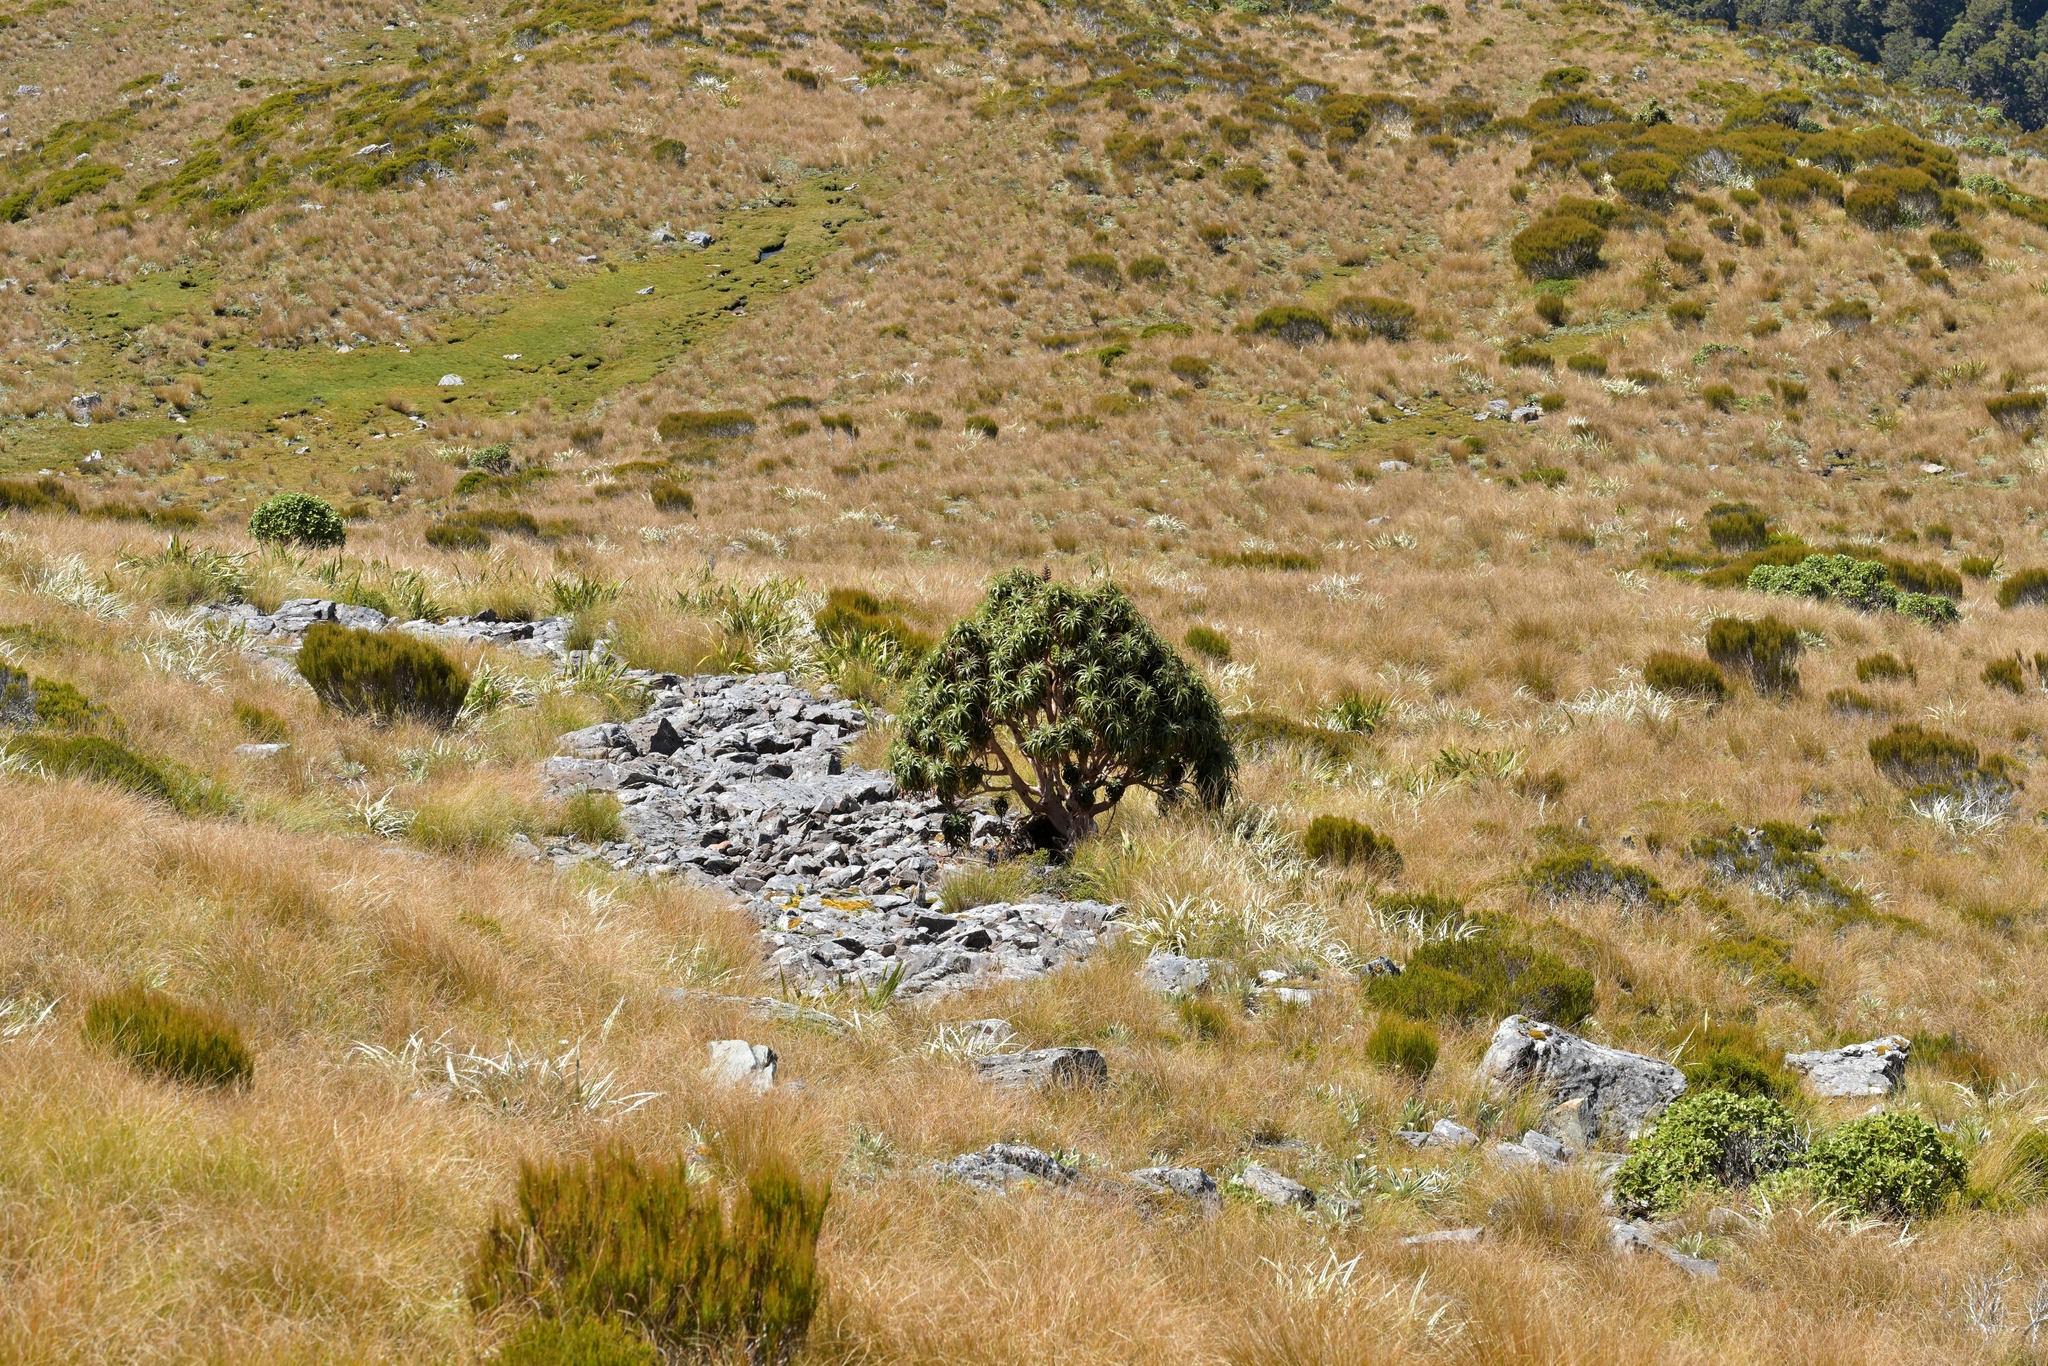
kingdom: Plantae
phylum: Tracheophyta
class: Magnoliopsida
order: Ericales
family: Ericaceae
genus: Dracophyllum
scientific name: Dracophyllum traversii
